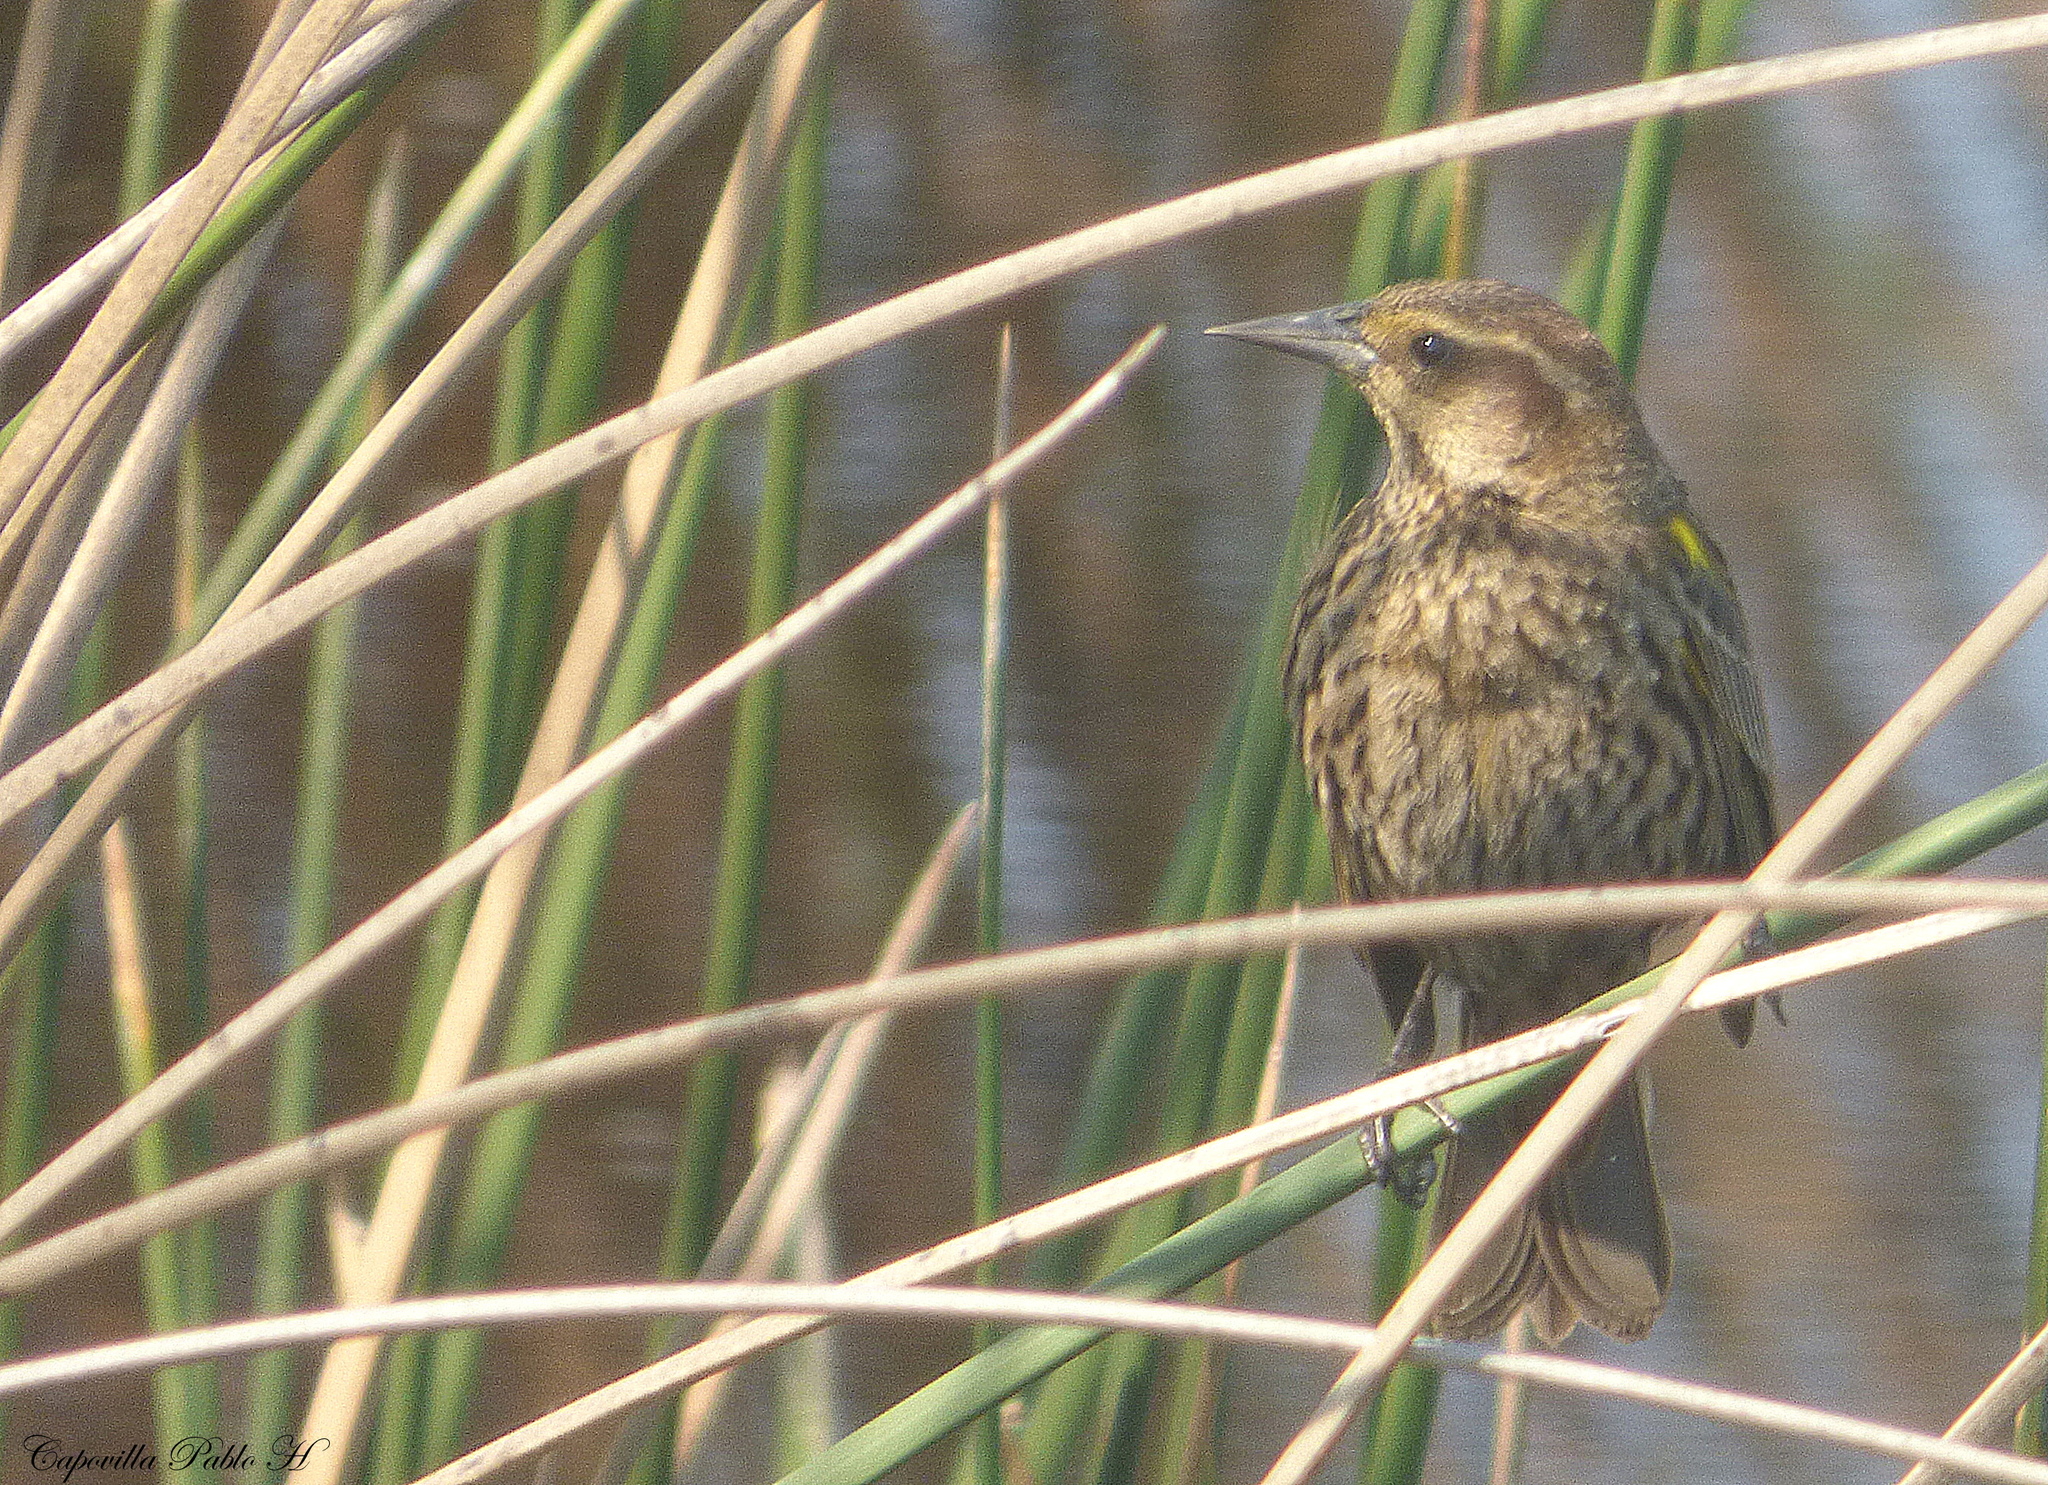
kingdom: Animalia
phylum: Chordata
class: Aves
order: Passeriformes
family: Icteridae
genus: Agelasticus
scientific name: Agelasticus thilius
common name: Yellow-winged blackbird
